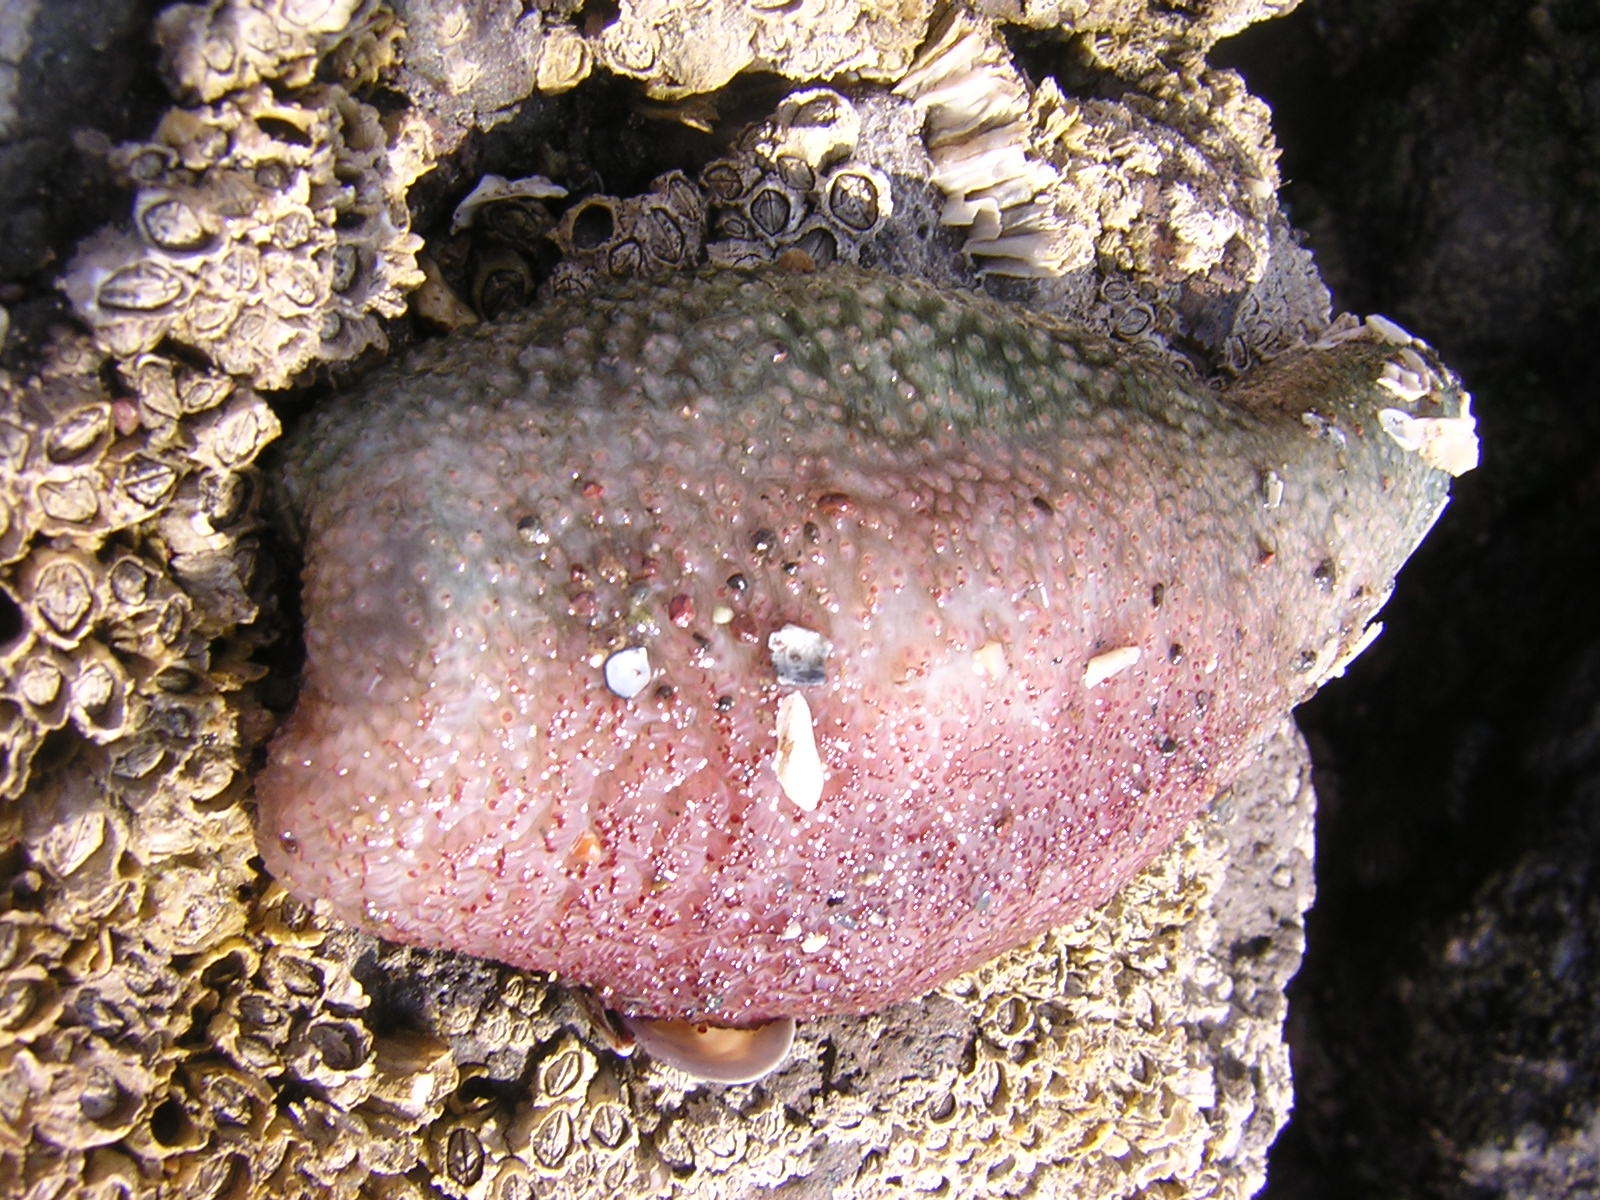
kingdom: Animalia
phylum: Echinodermata
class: Holothuroidea
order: Dendrochirotida
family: Cucumariidae
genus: Athyonidium
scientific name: Athyonidium chilensis
